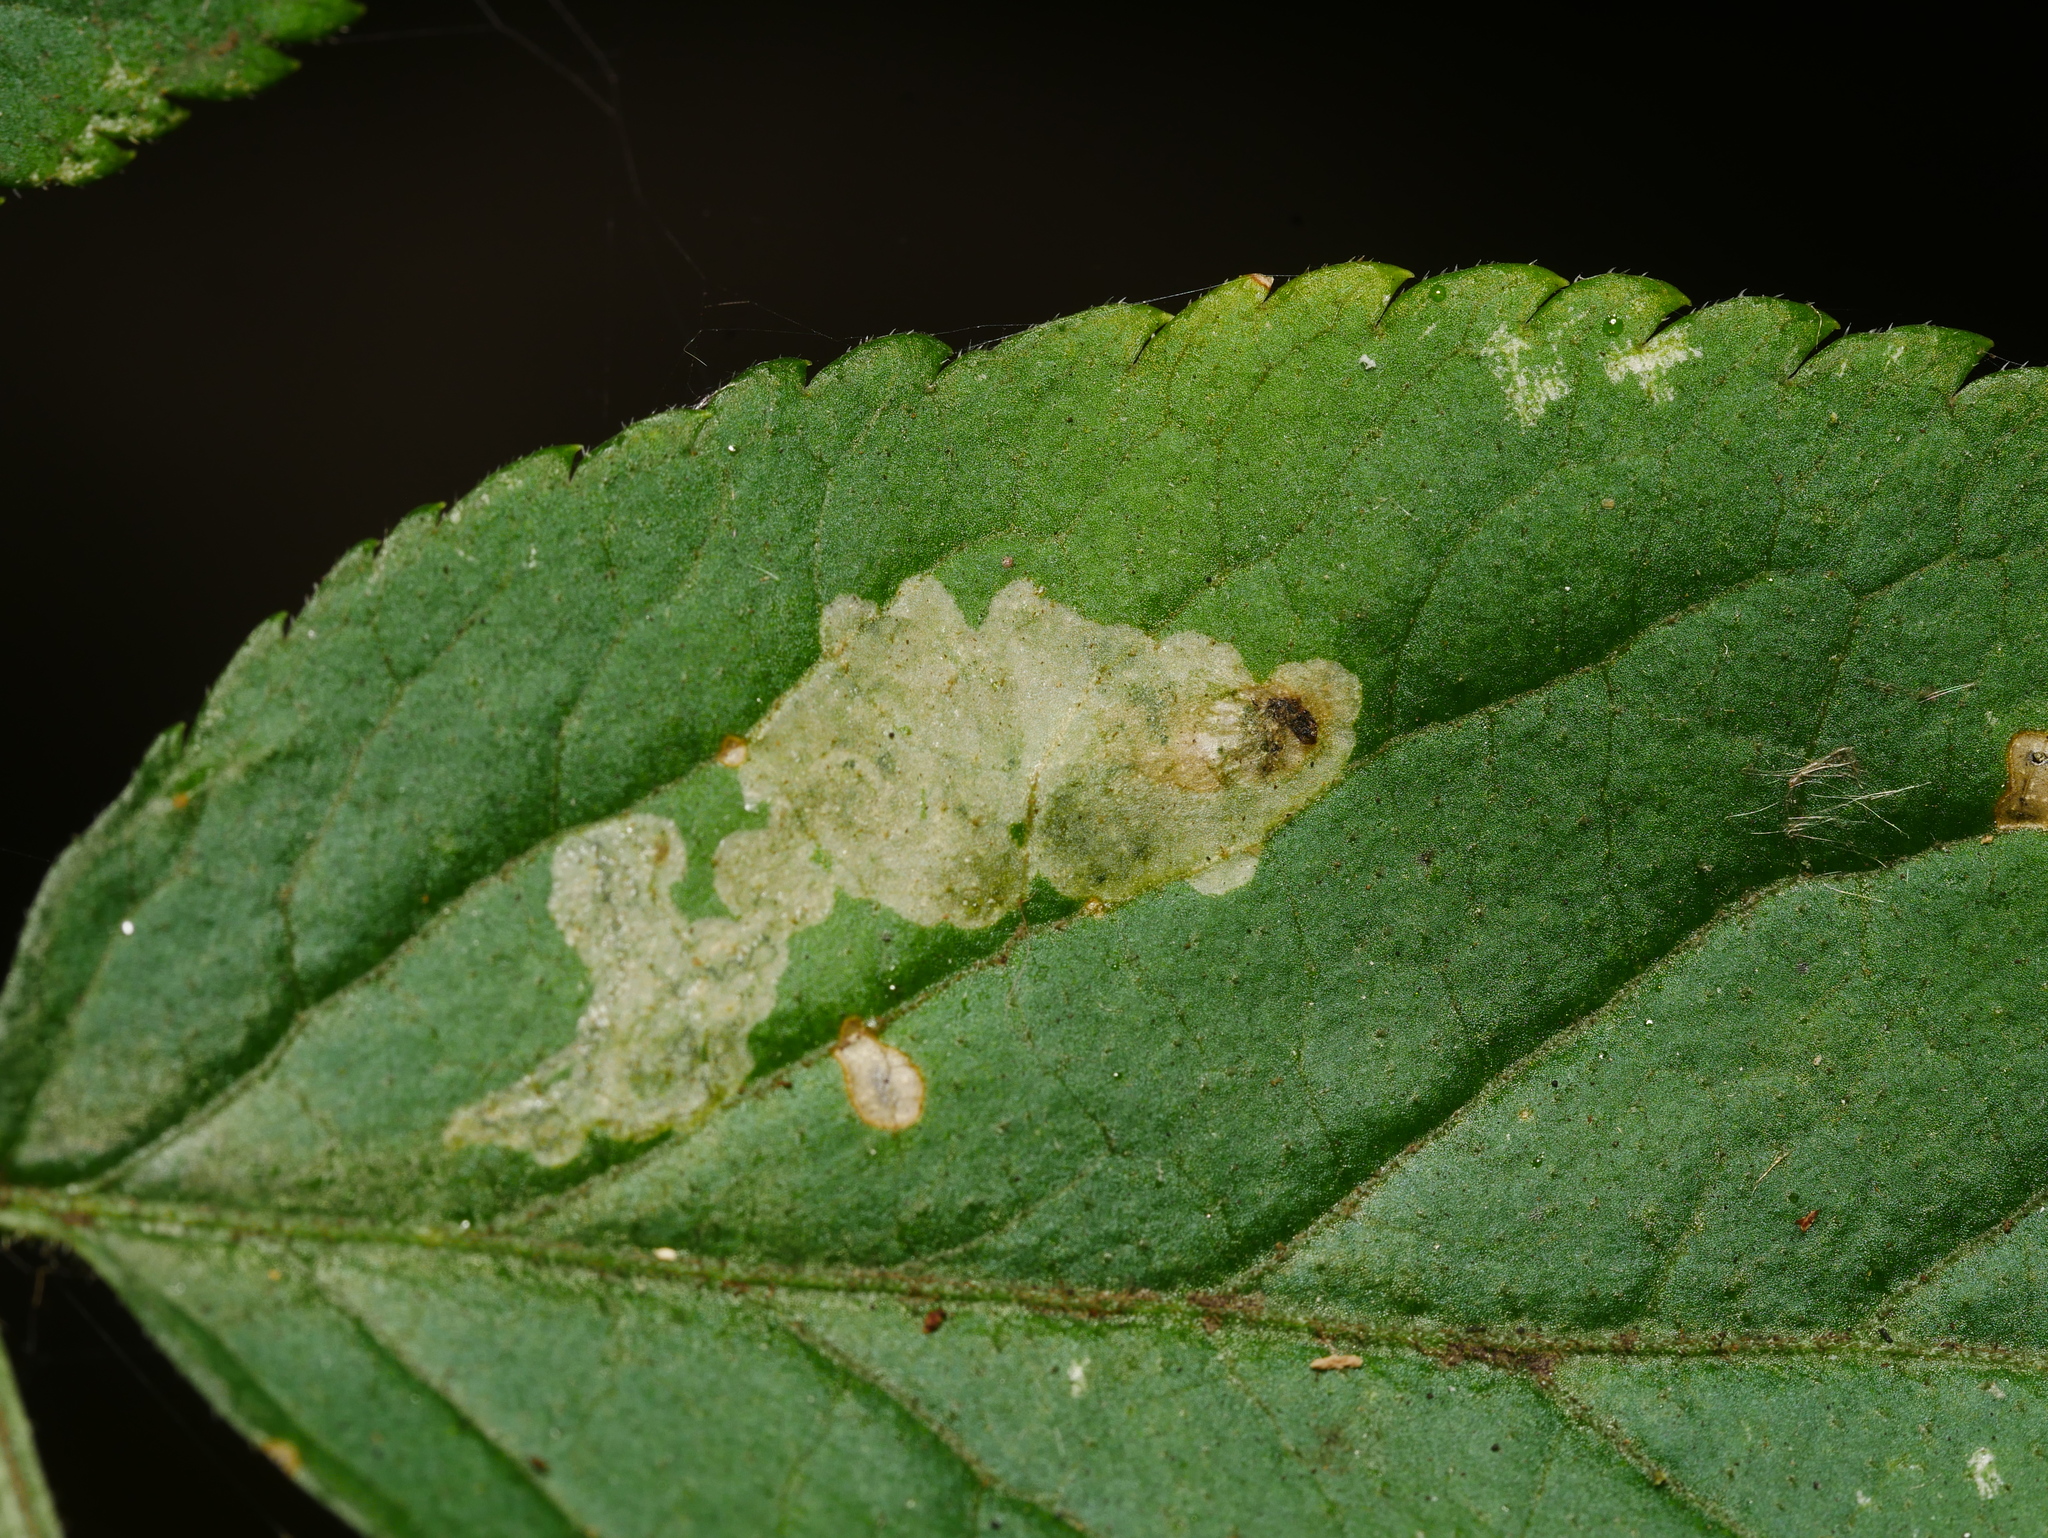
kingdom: Animalia
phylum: Arthropoda
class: Insecta
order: Diptera
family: Agromyzidae
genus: Liriomyza
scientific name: Liriomyza amoena
